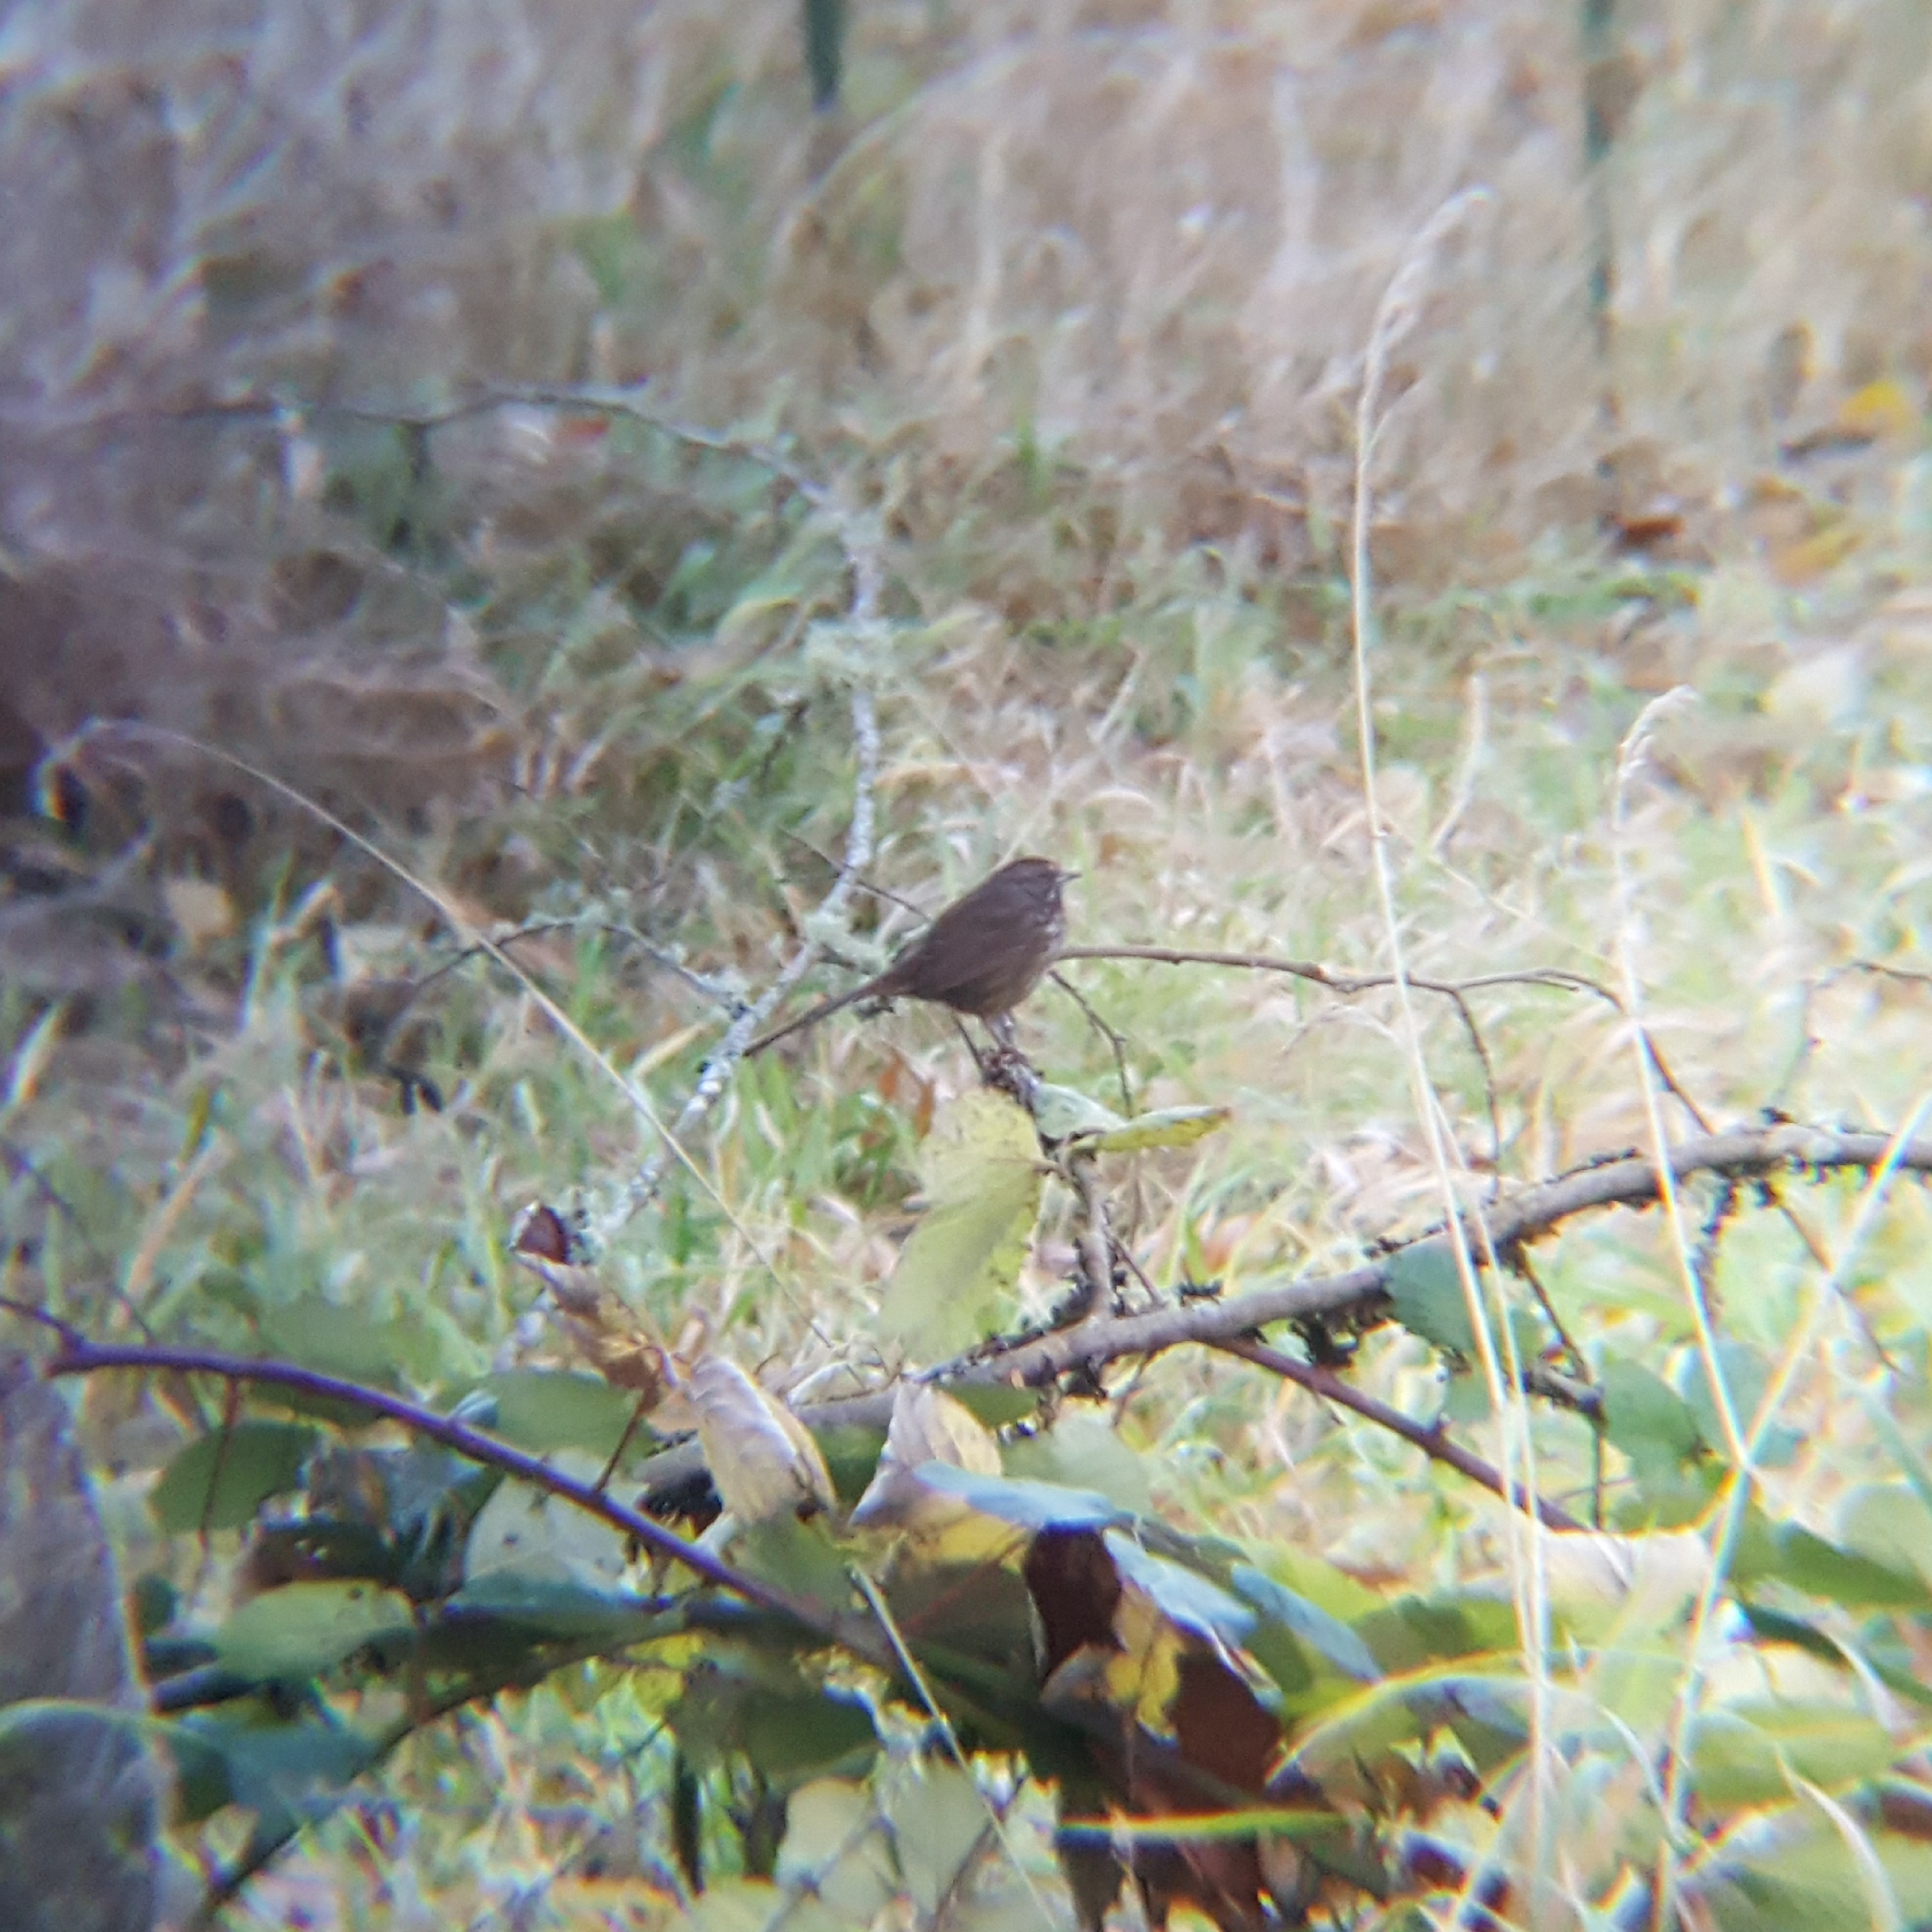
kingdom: Animalia
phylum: Chordata
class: Aves
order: Passeriformes
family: Passerellidae
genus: Melospiza
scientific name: Melospiza melodia
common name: Song sparrow
